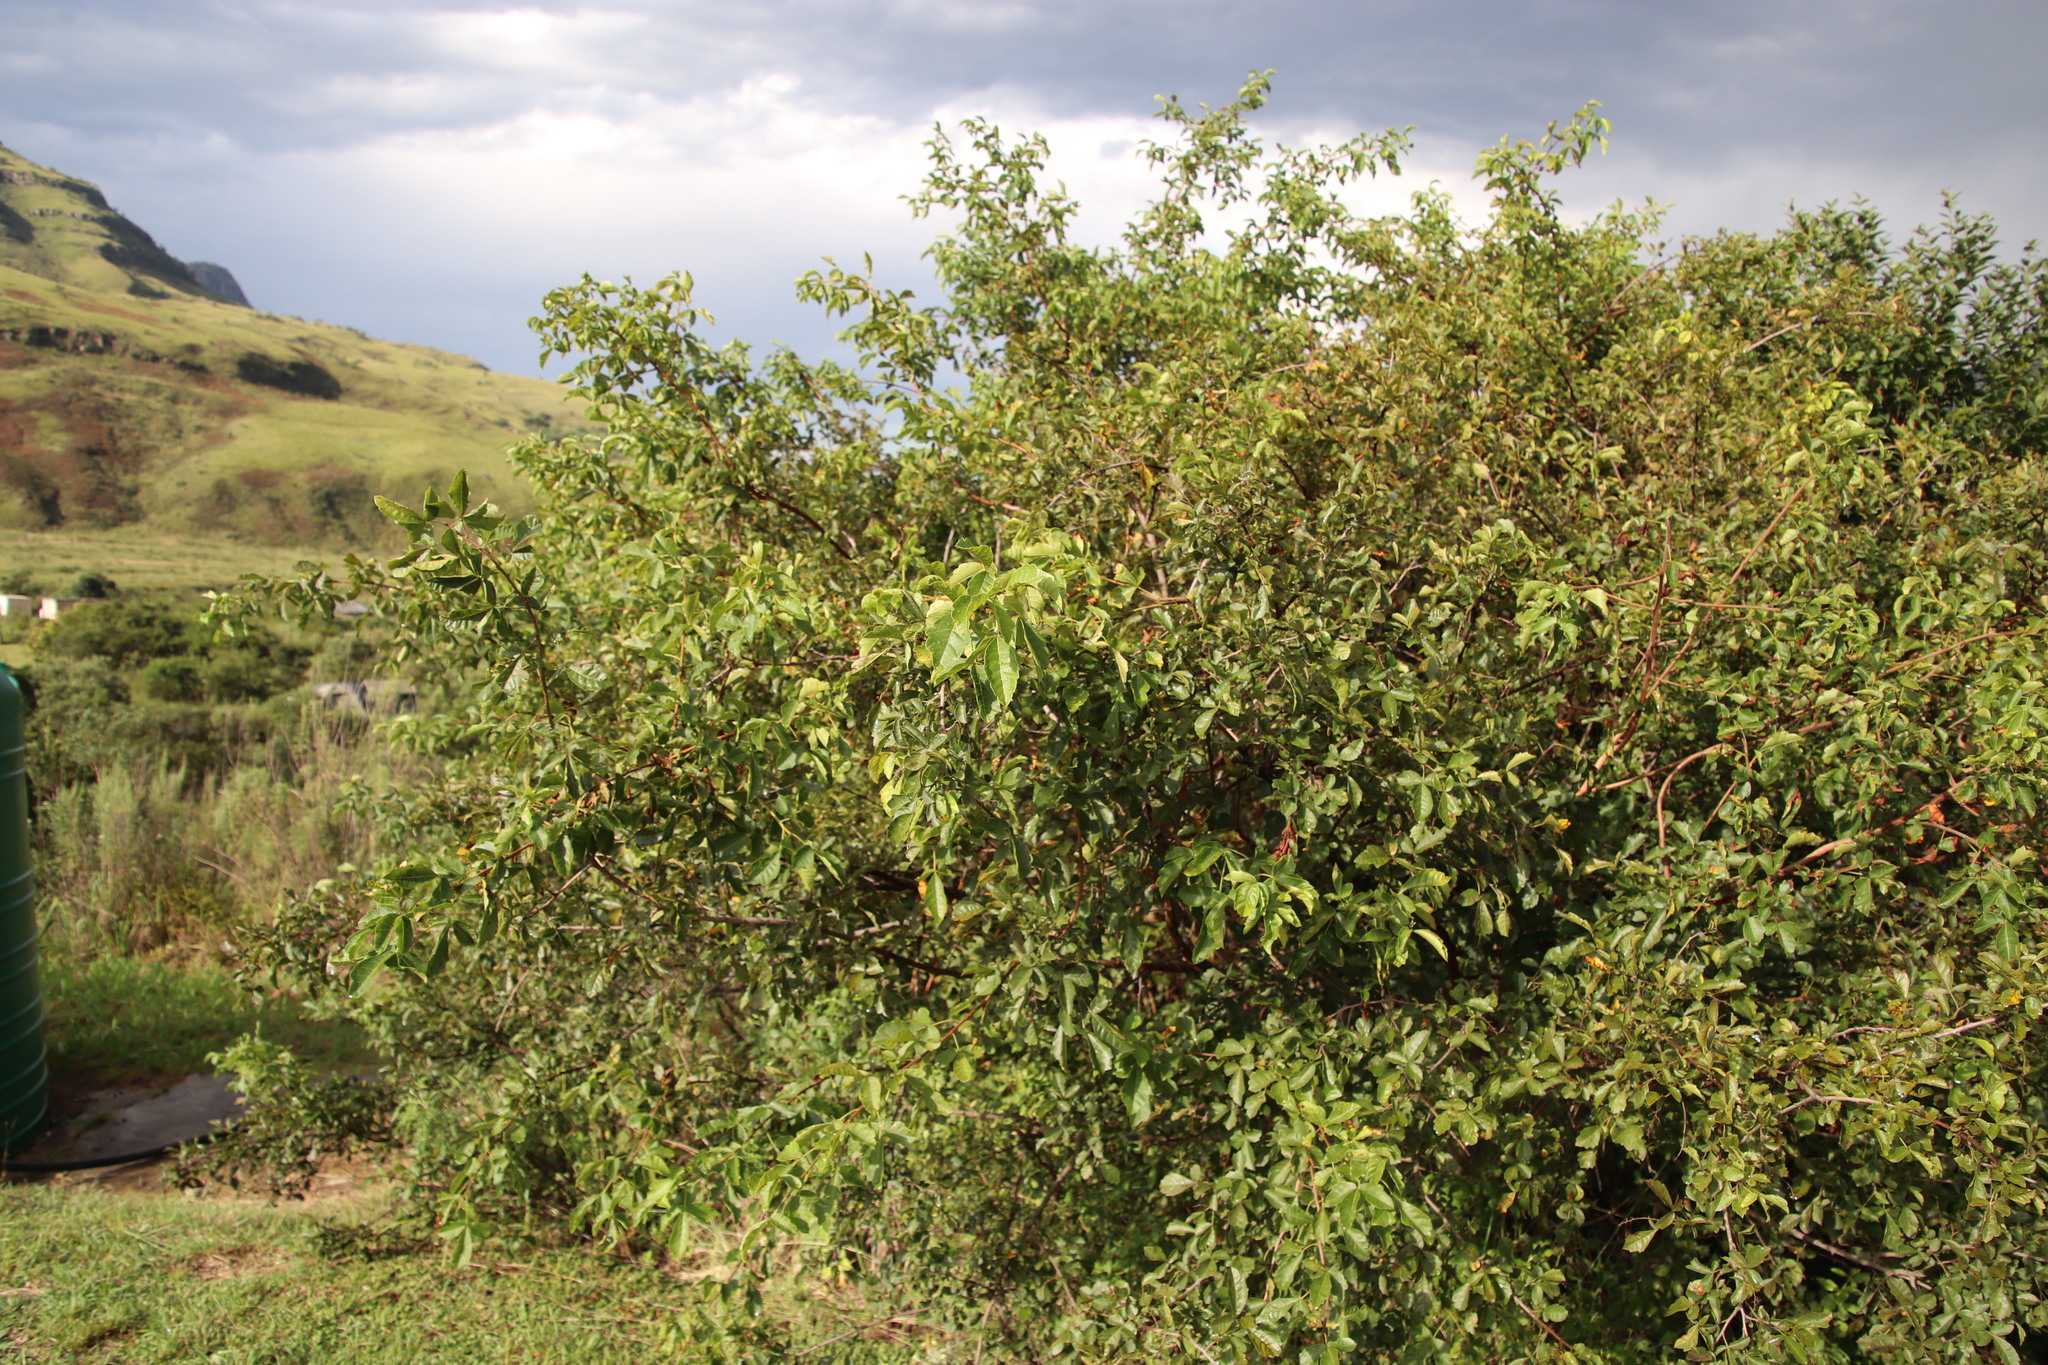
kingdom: Plantae
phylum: Tracheophyta
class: Magnoliopsida
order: Sapindales
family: Anacardiaceae
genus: Searsia
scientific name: Searsia dentata
